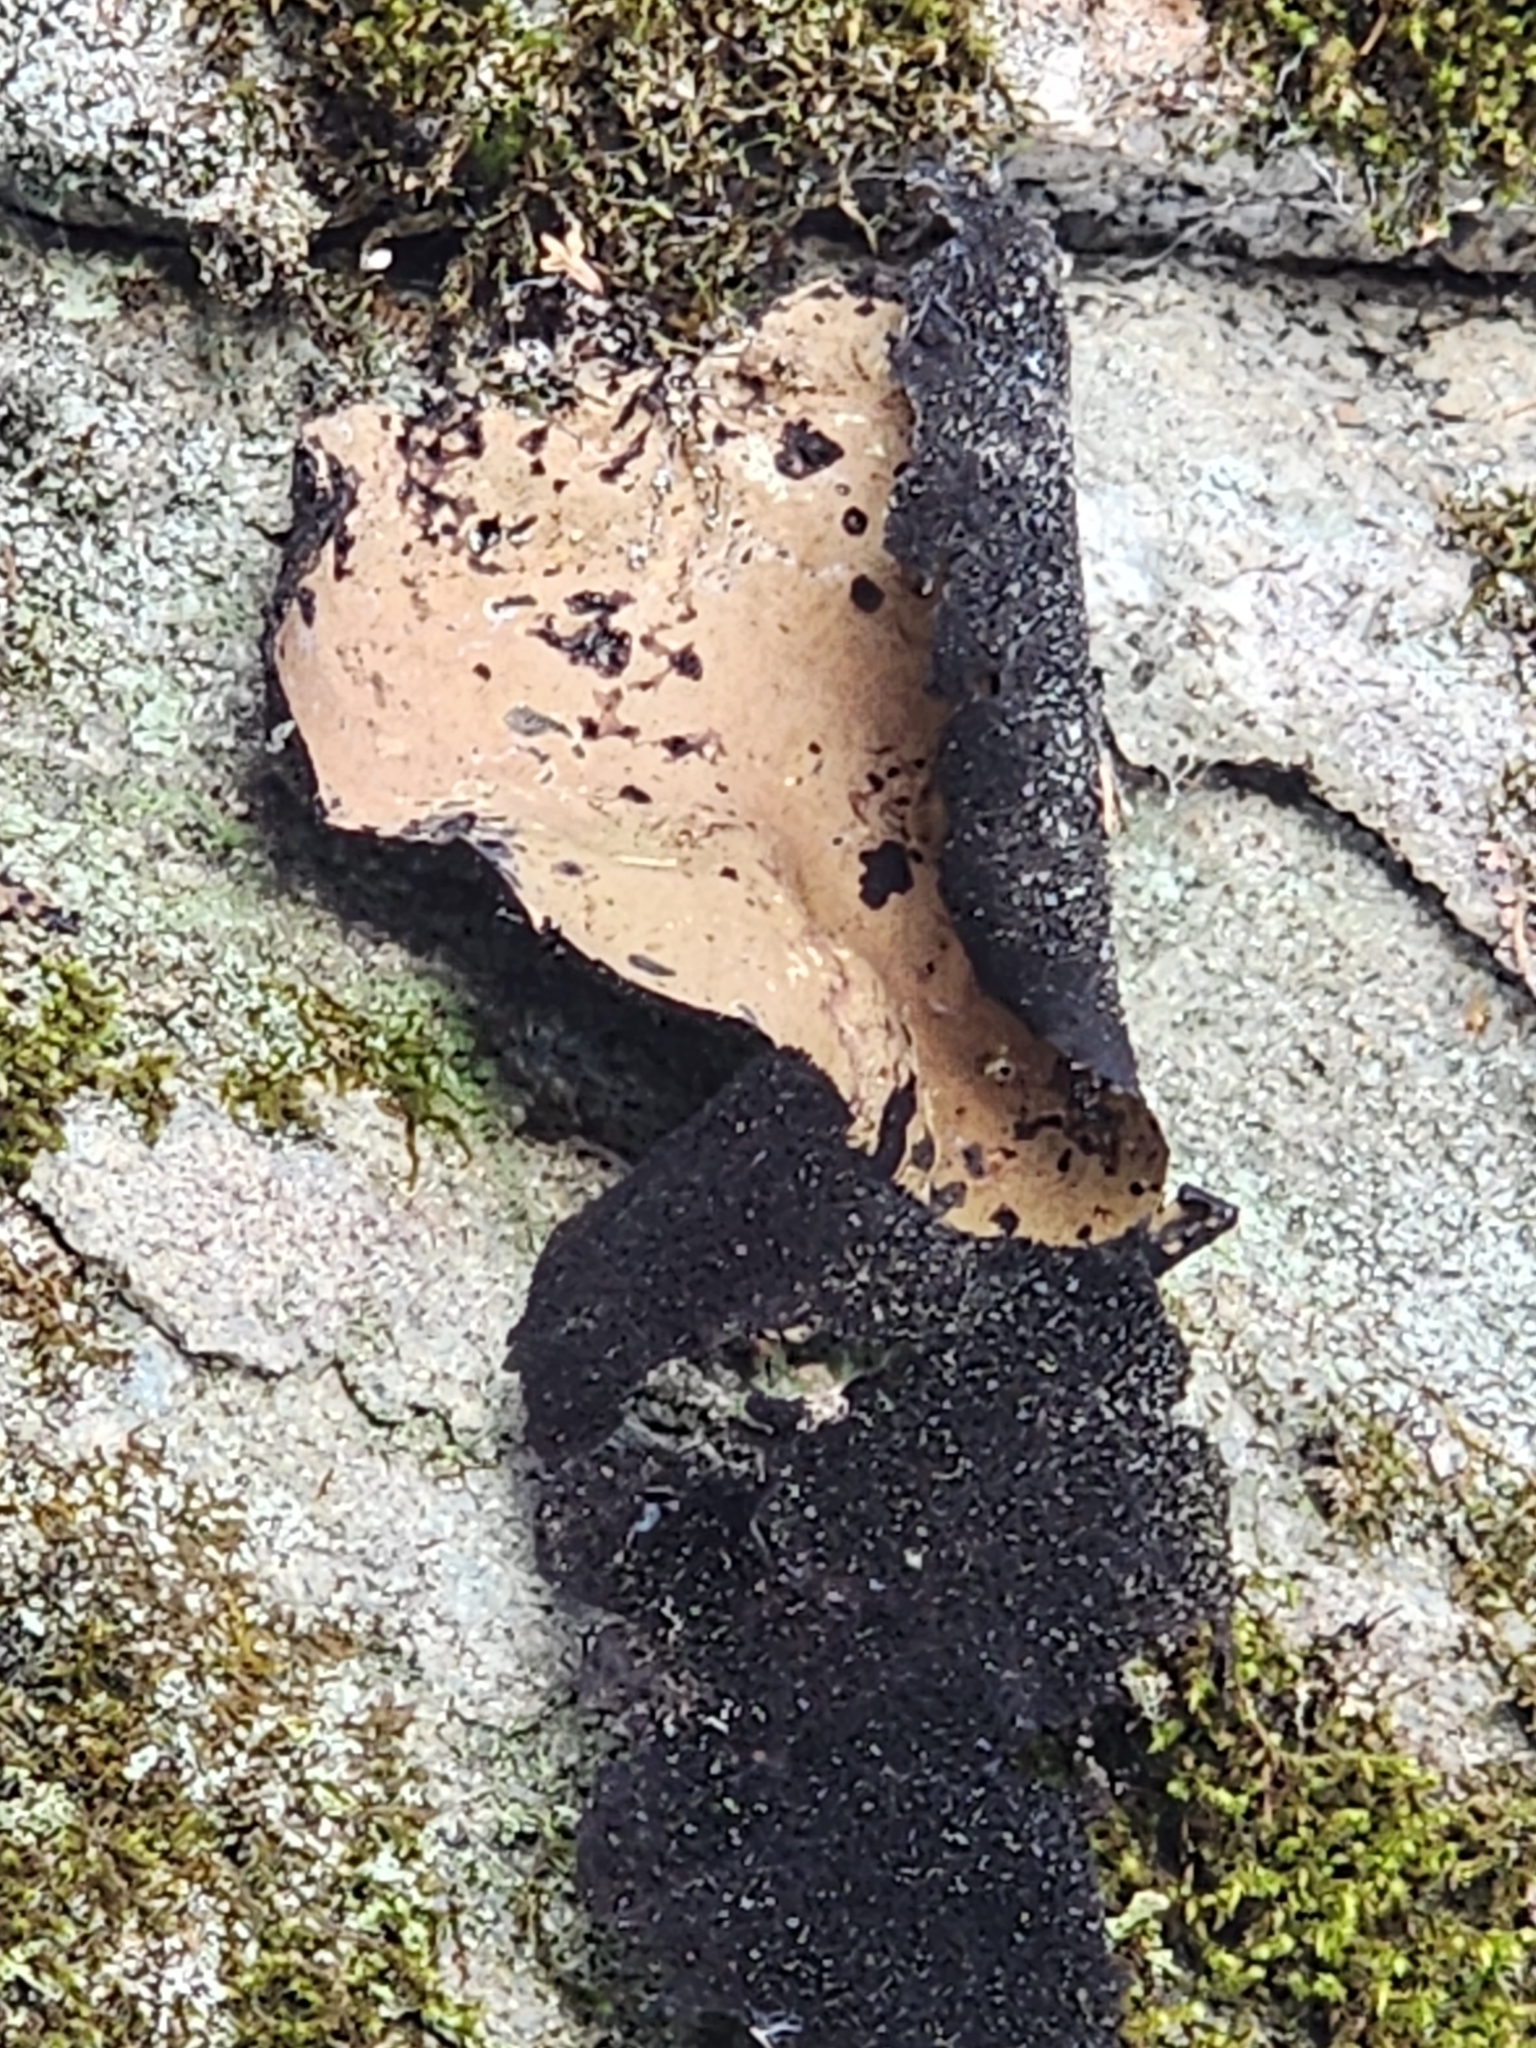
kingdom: Fungi
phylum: Ascomycota
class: Lecanoromycetes
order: Umbilicariales
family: Umbilicariaceae
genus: Umbilicaria
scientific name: Umbilicaria mammulata
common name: Smooth rock tripe
